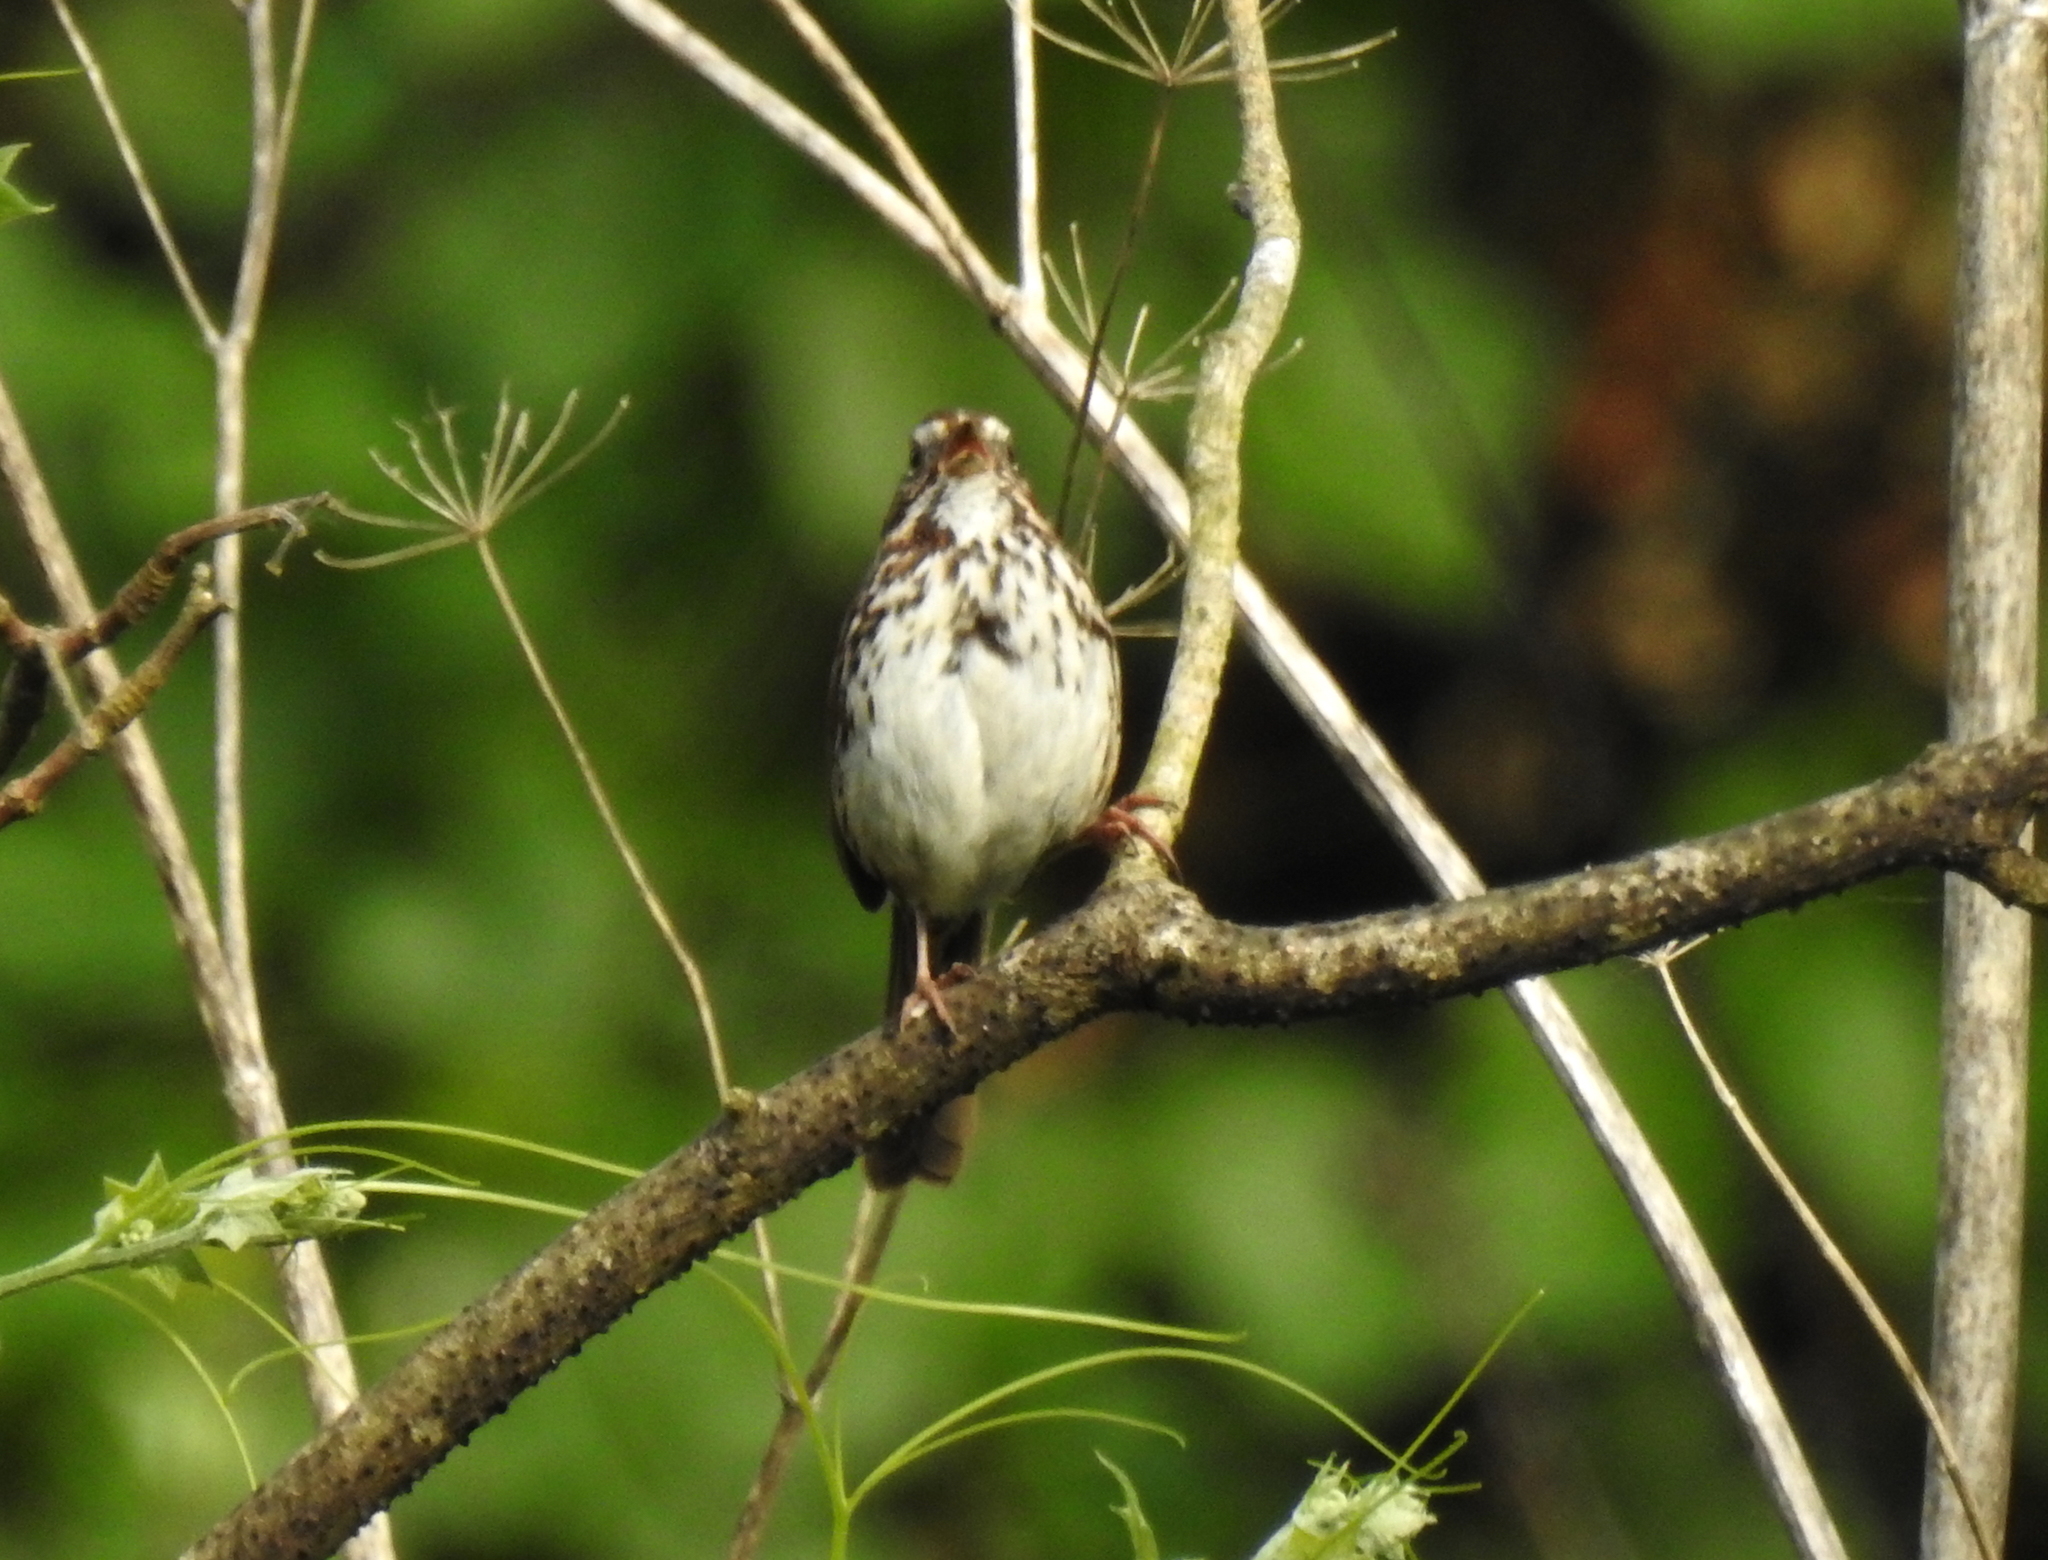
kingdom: Animalia
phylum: Chordata
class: Aves
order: Passeriformes
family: Passerellidae
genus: Melospiza
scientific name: Melospiza melodia
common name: Song sparrow
